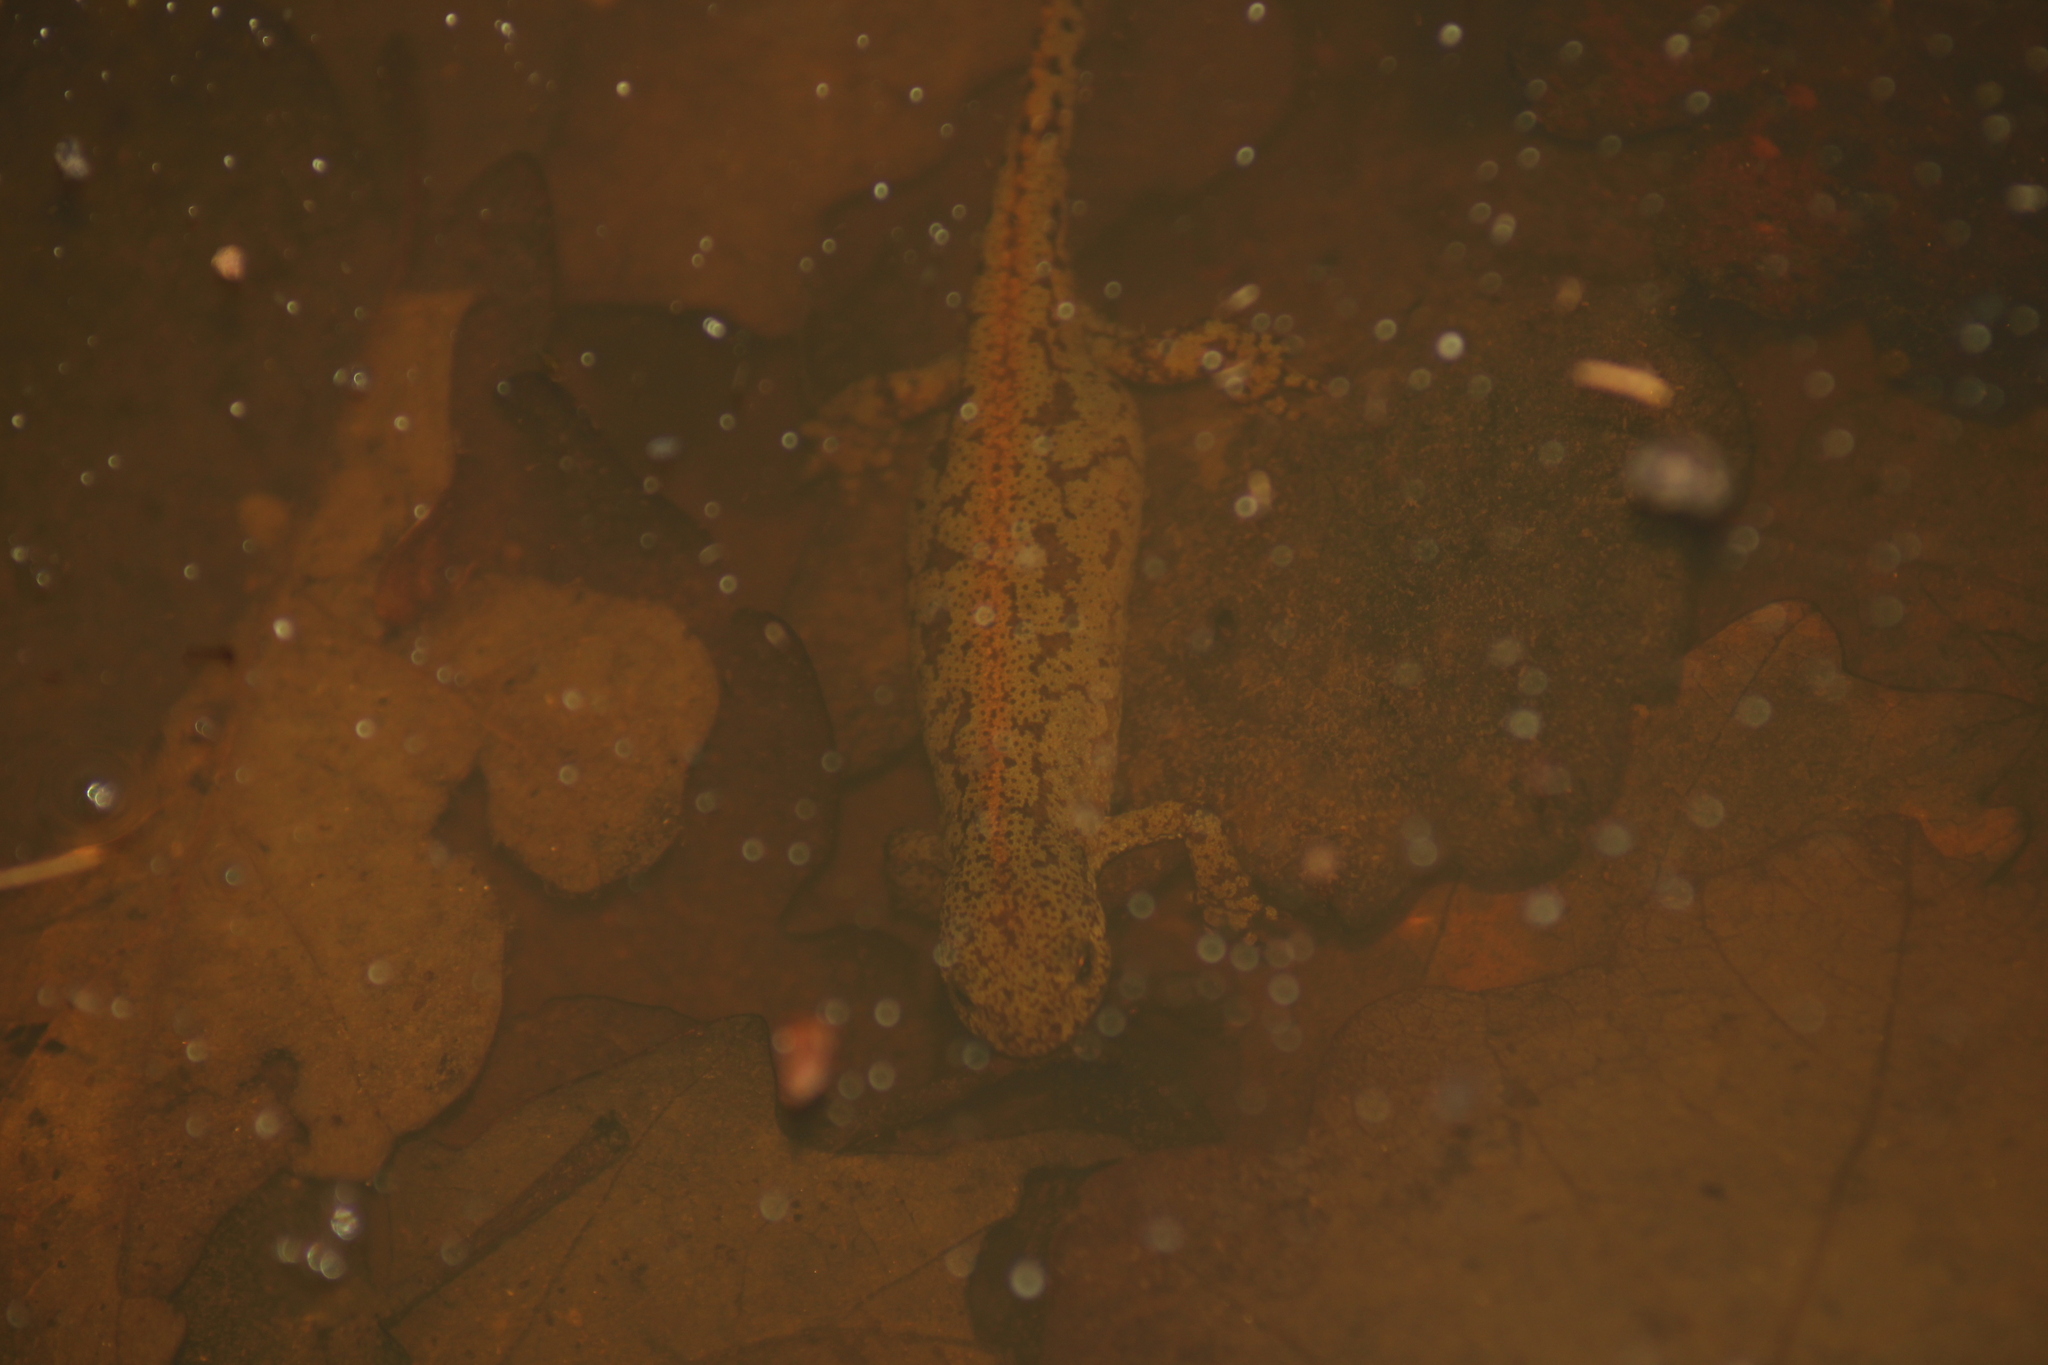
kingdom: Animalia
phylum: Chordata
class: Amphibia
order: Caudata
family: Salamandridae
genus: Ichthyosaura
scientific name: Ichthyosaura alpestris
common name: Alpine newt
